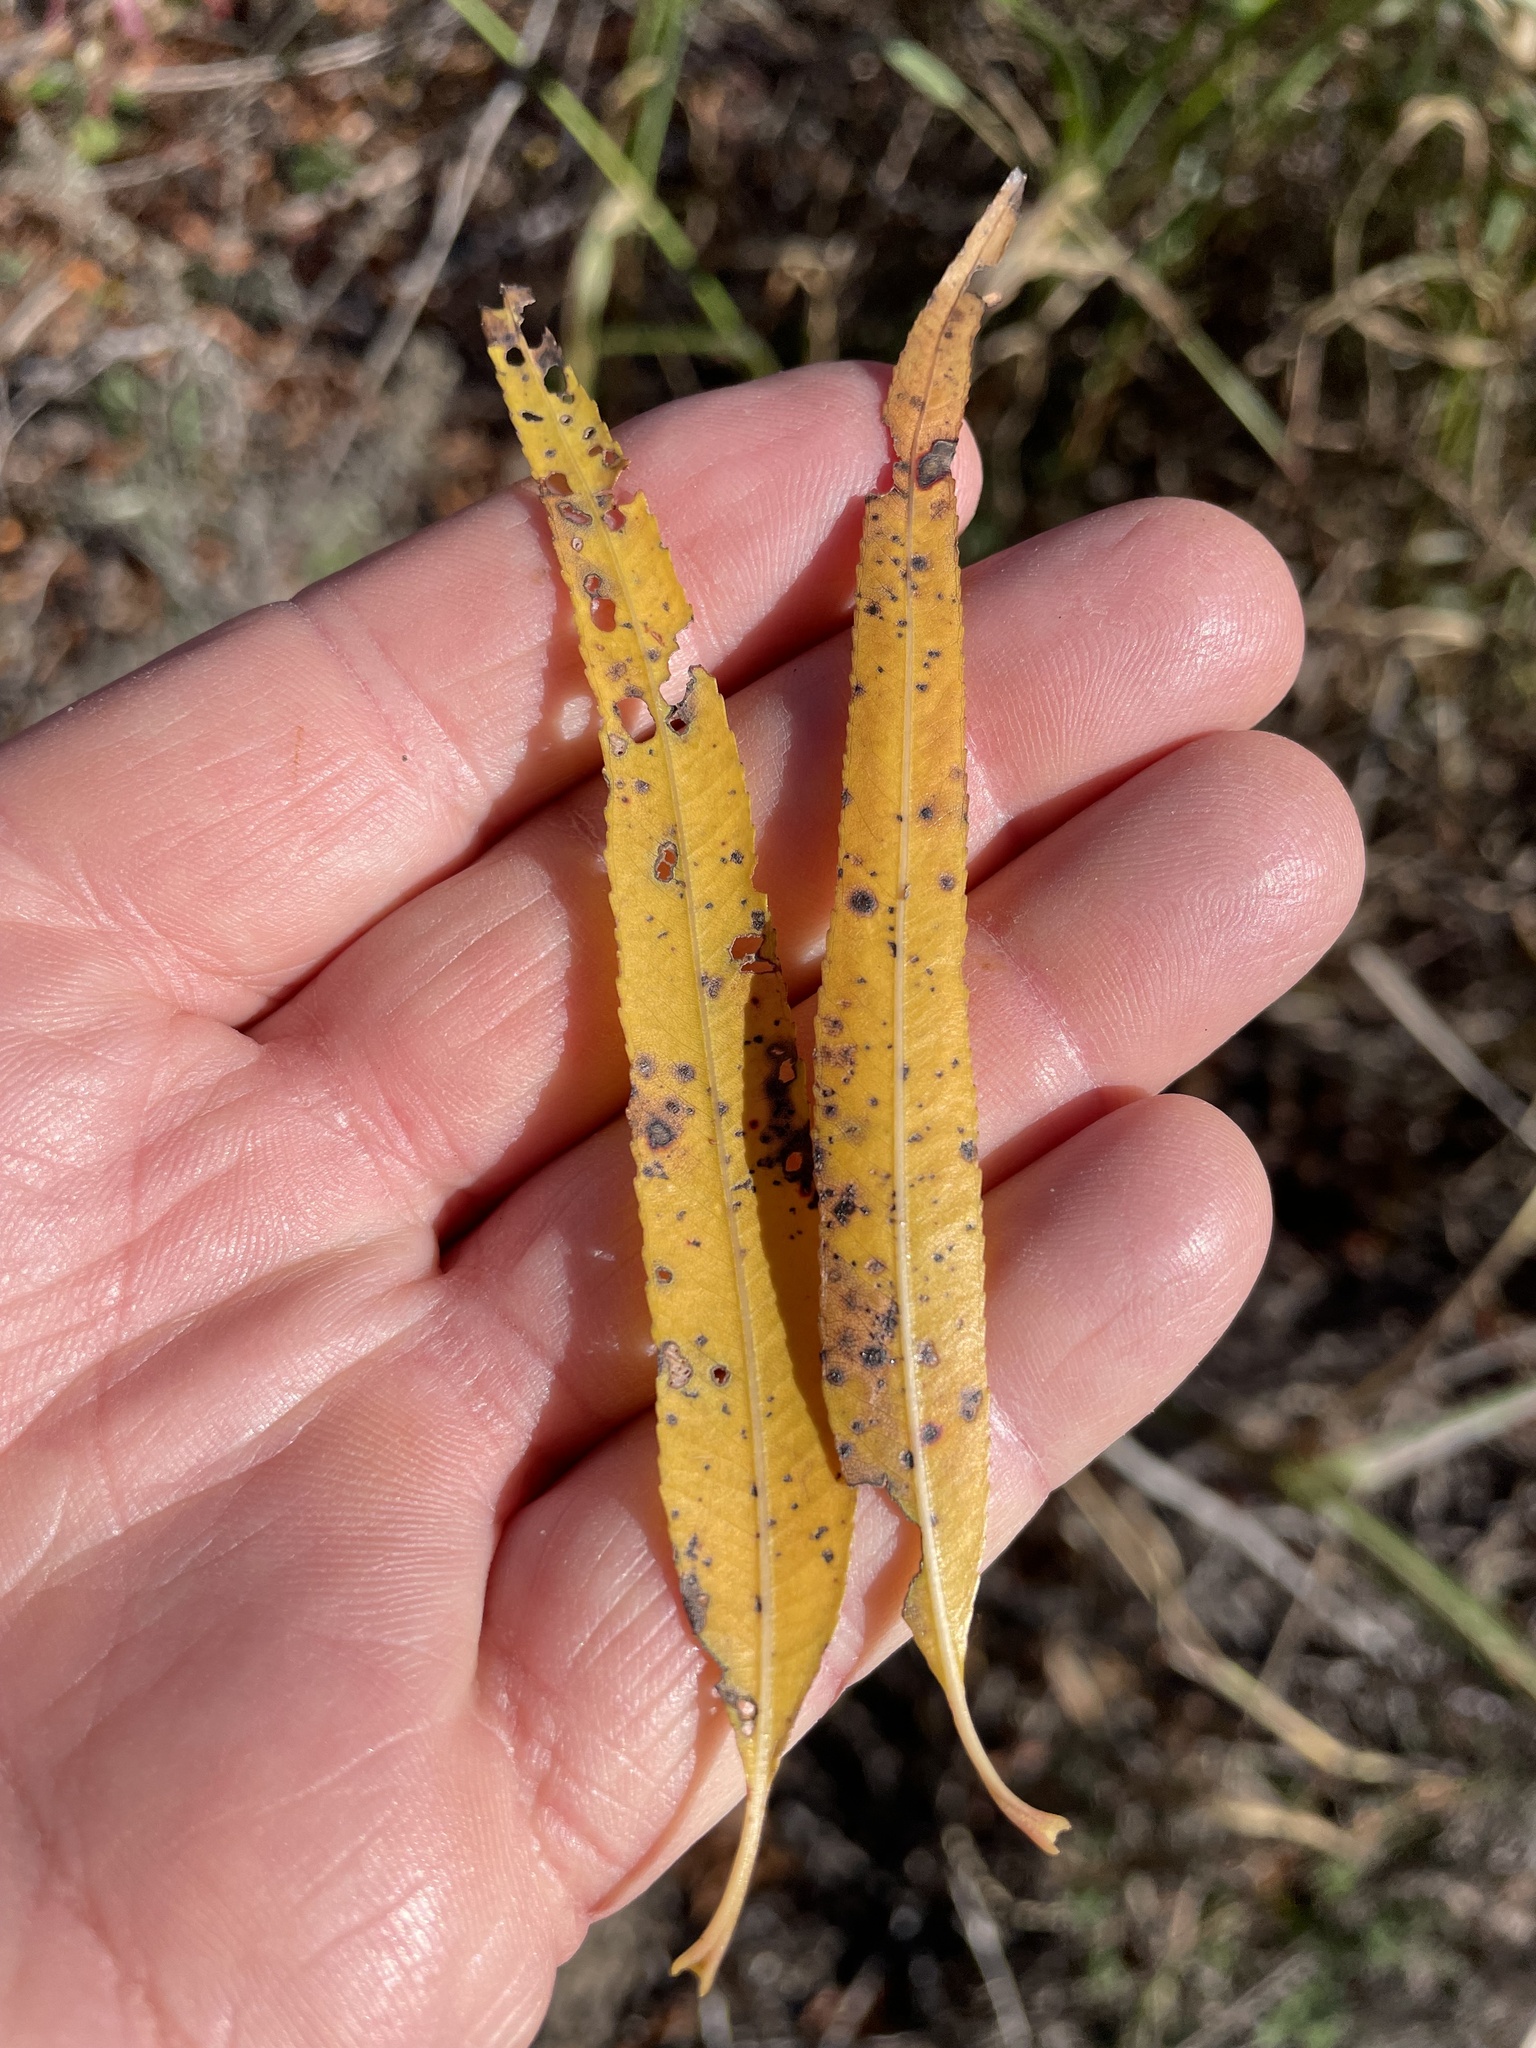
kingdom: Plantae
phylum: Tracheophyta
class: Magnoliopsida
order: Malpighiales
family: Salicaceae
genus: Salix
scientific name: Salix nigra
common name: Black willow
